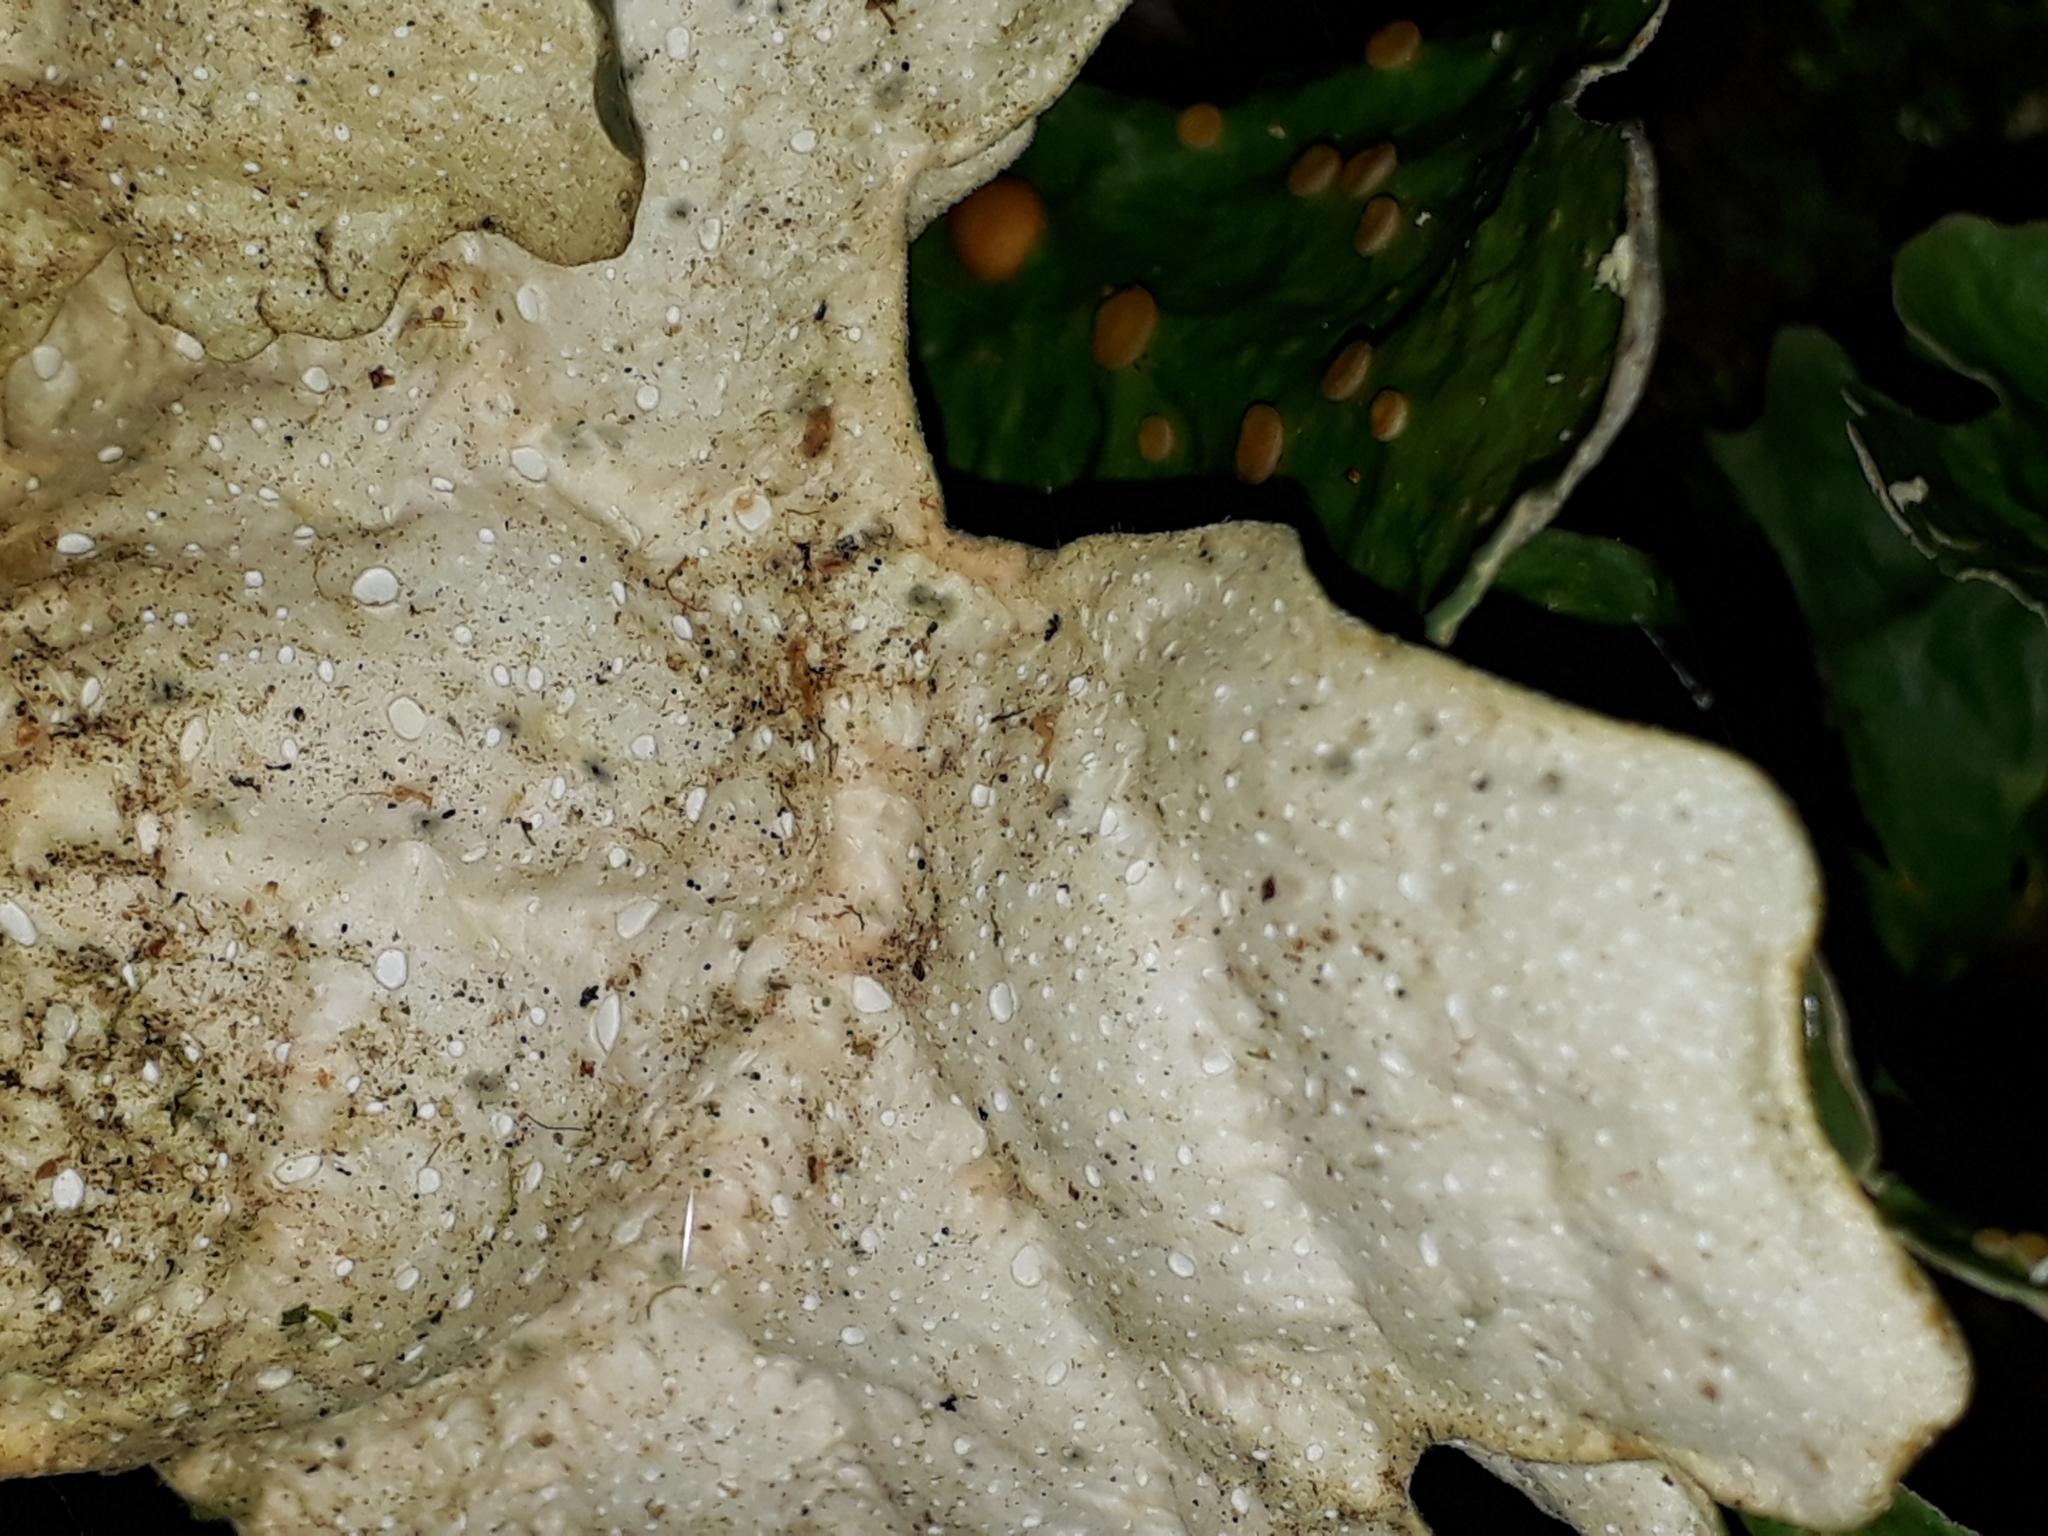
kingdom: Fungi
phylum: Ascomycota
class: Lecanoromycetes
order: Peltigerales
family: Lobariaceae
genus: Sticta
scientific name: Sticta latifrons
